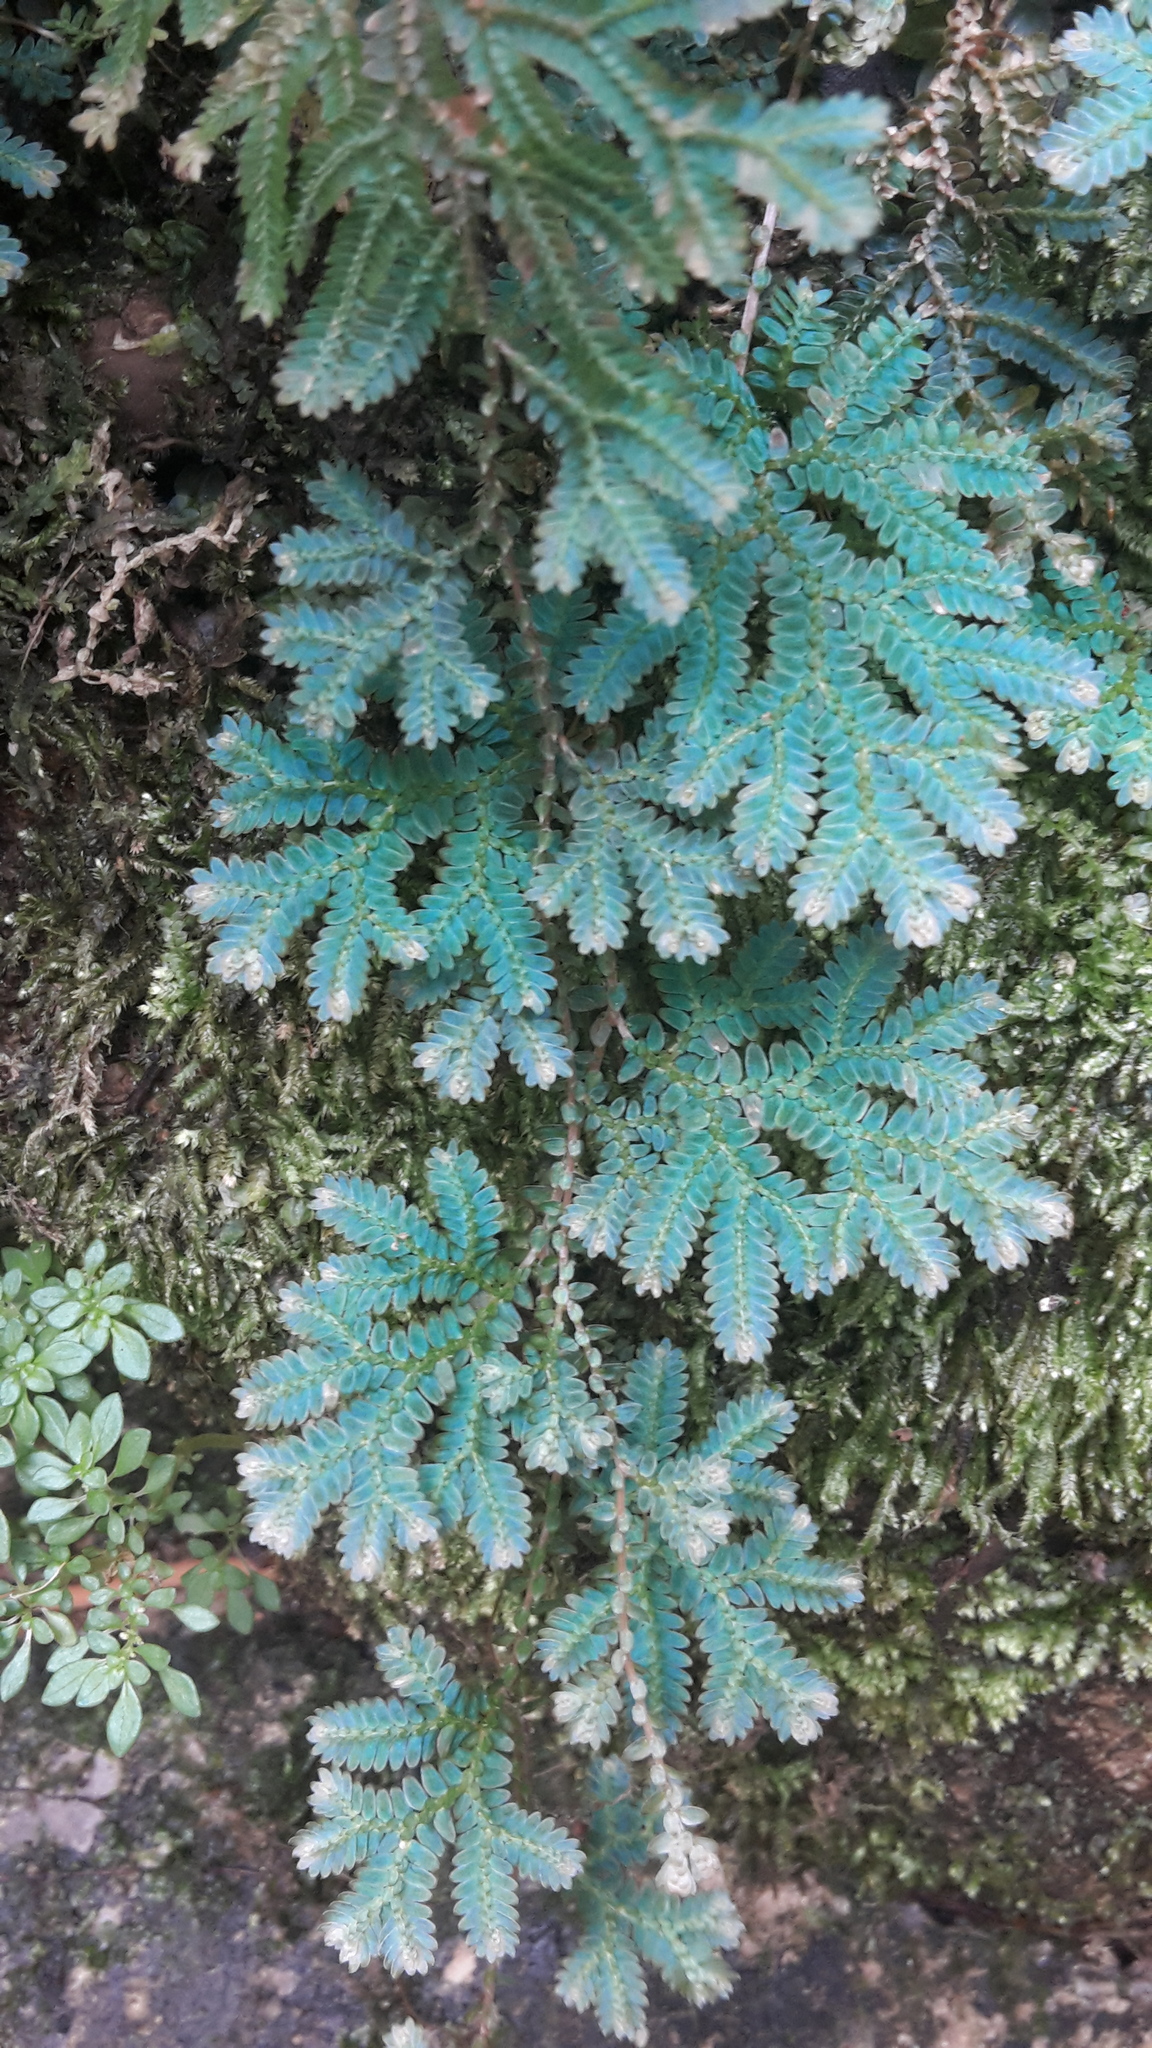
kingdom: Plantae
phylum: Tracheophyta
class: Lycopodiopsida
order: Selaginellales
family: Selaginellaceae
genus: Selaginella
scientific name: Selaginella uncinata
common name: Blue spikemoss
